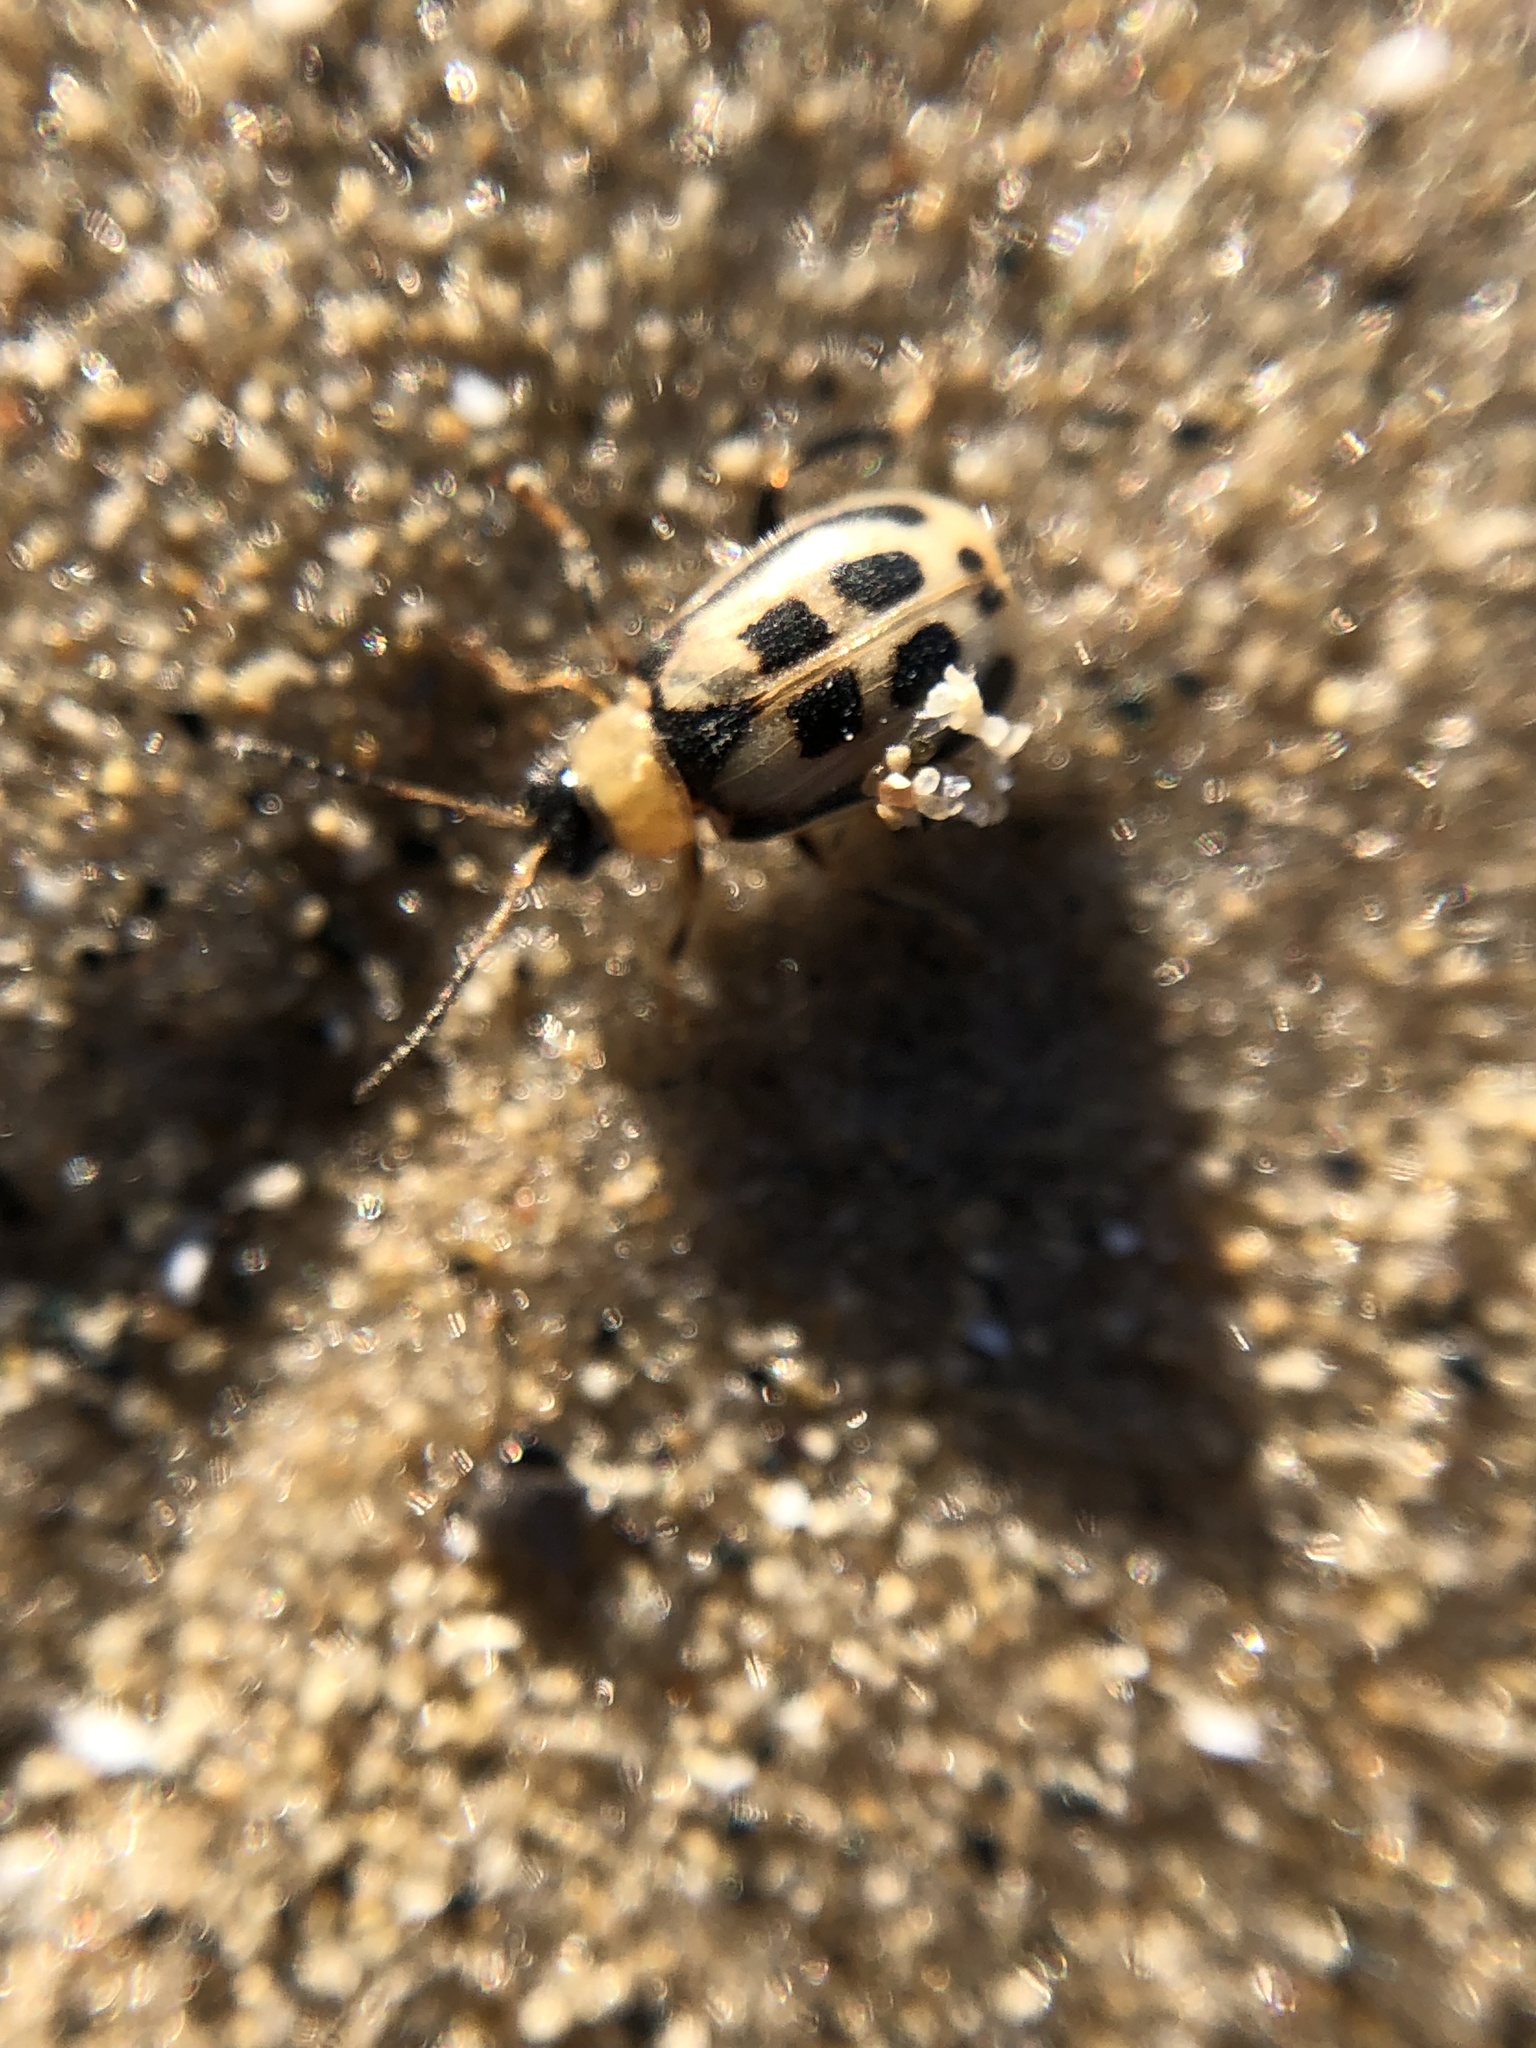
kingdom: Animalia
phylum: Arthropoda
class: Insecta
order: Coleoptera
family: Chrysomelidae
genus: Cerotoma
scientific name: Cerotoma trifurcata
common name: Bean leaf beetle
